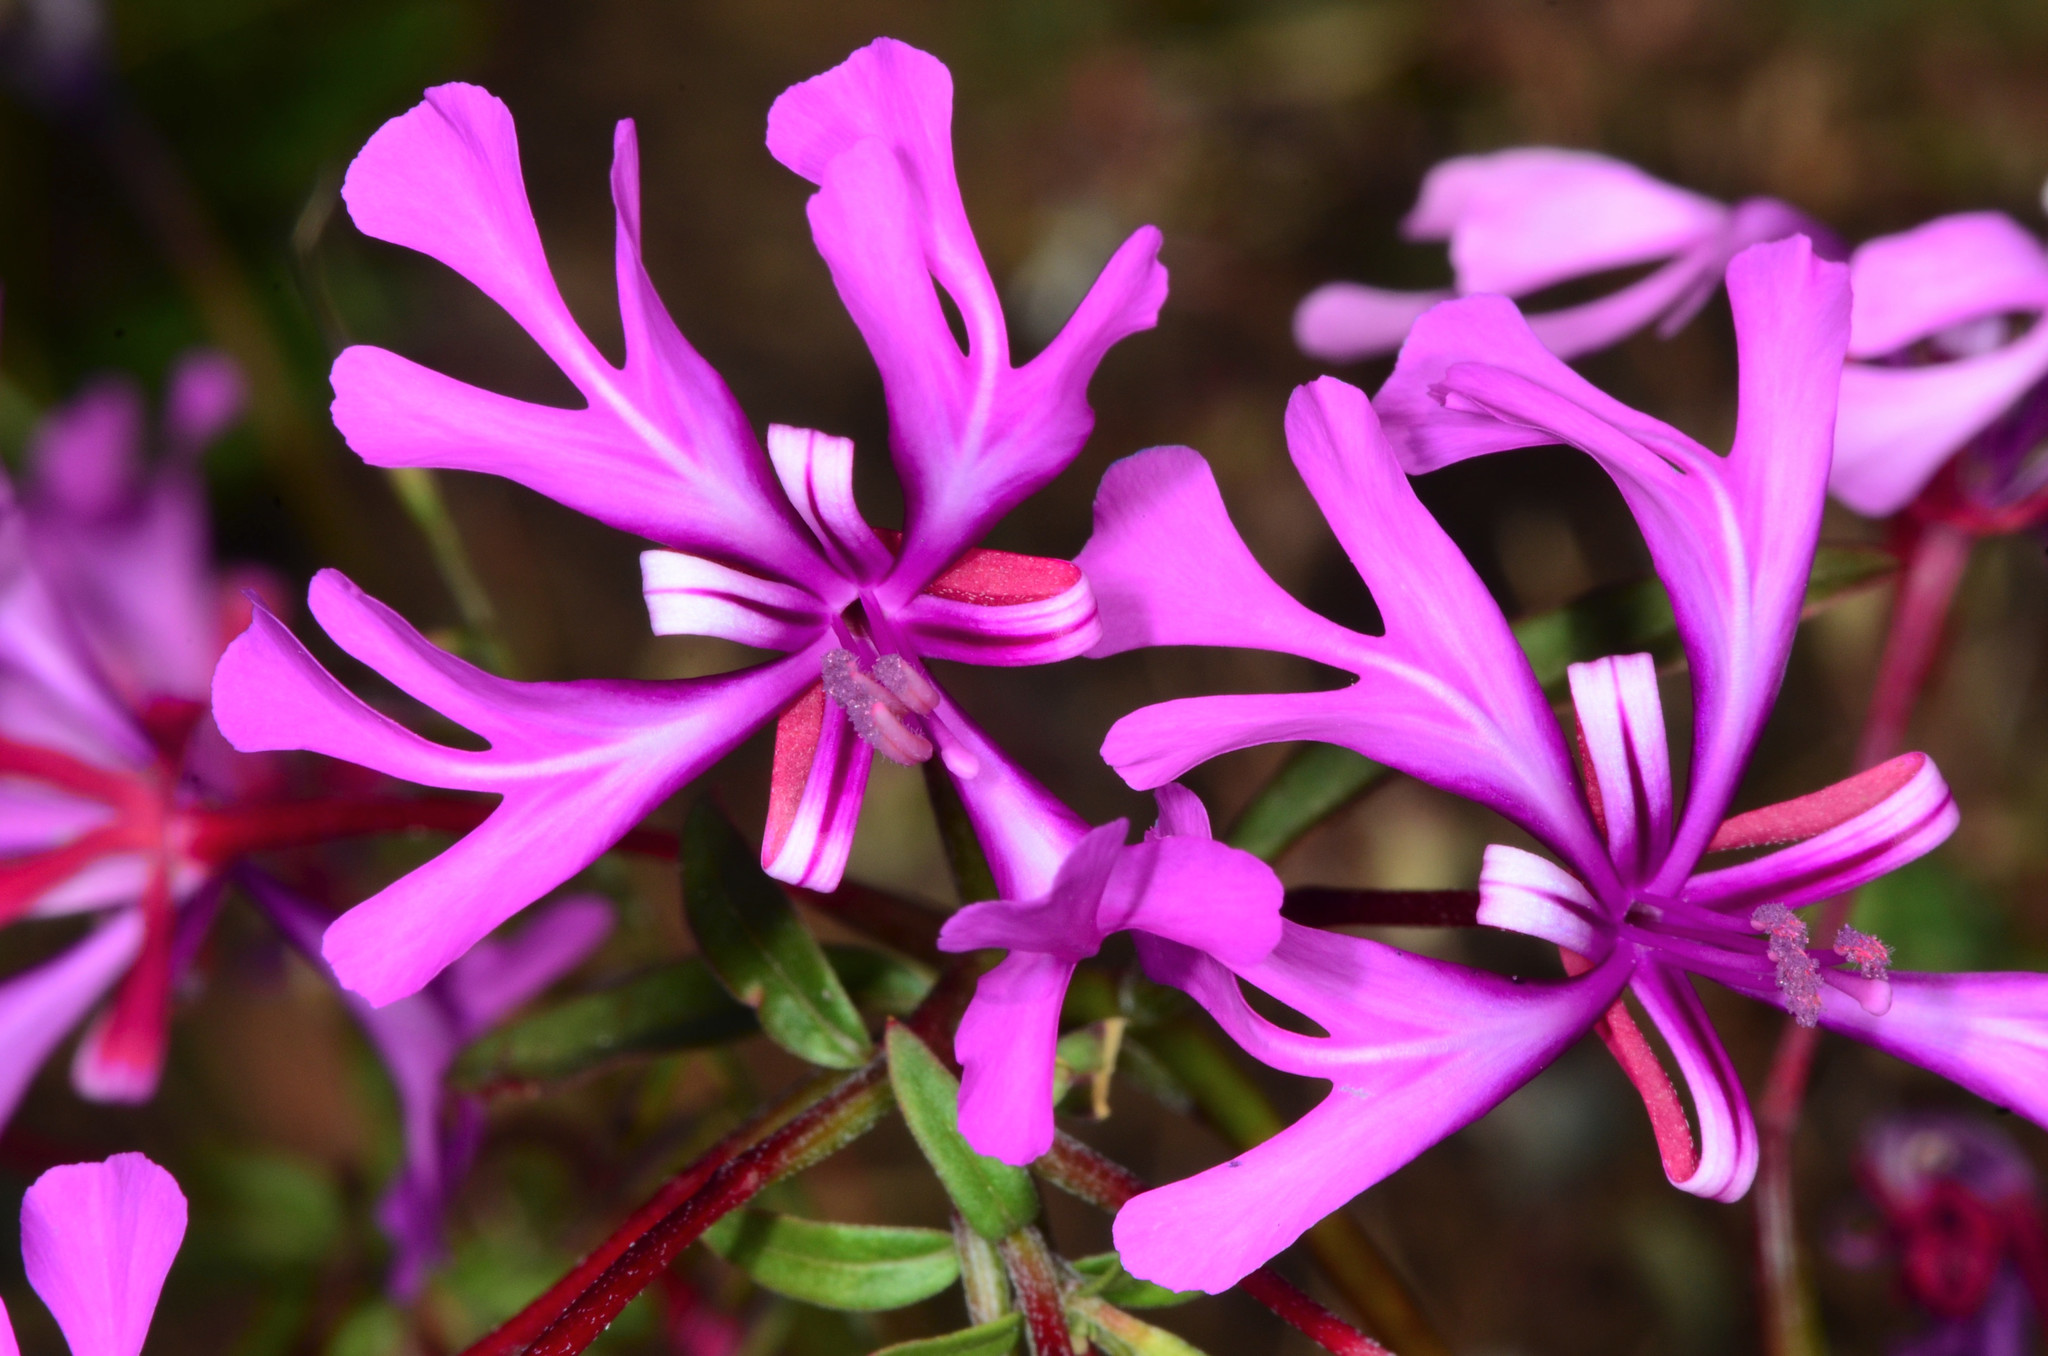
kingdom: Plantae
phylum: Tracheophyta
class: Magnoliopsida
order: Myrtales
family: Onagraceae
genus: Clarkia
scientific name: Clarkia concinna
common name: Red-ribbons
